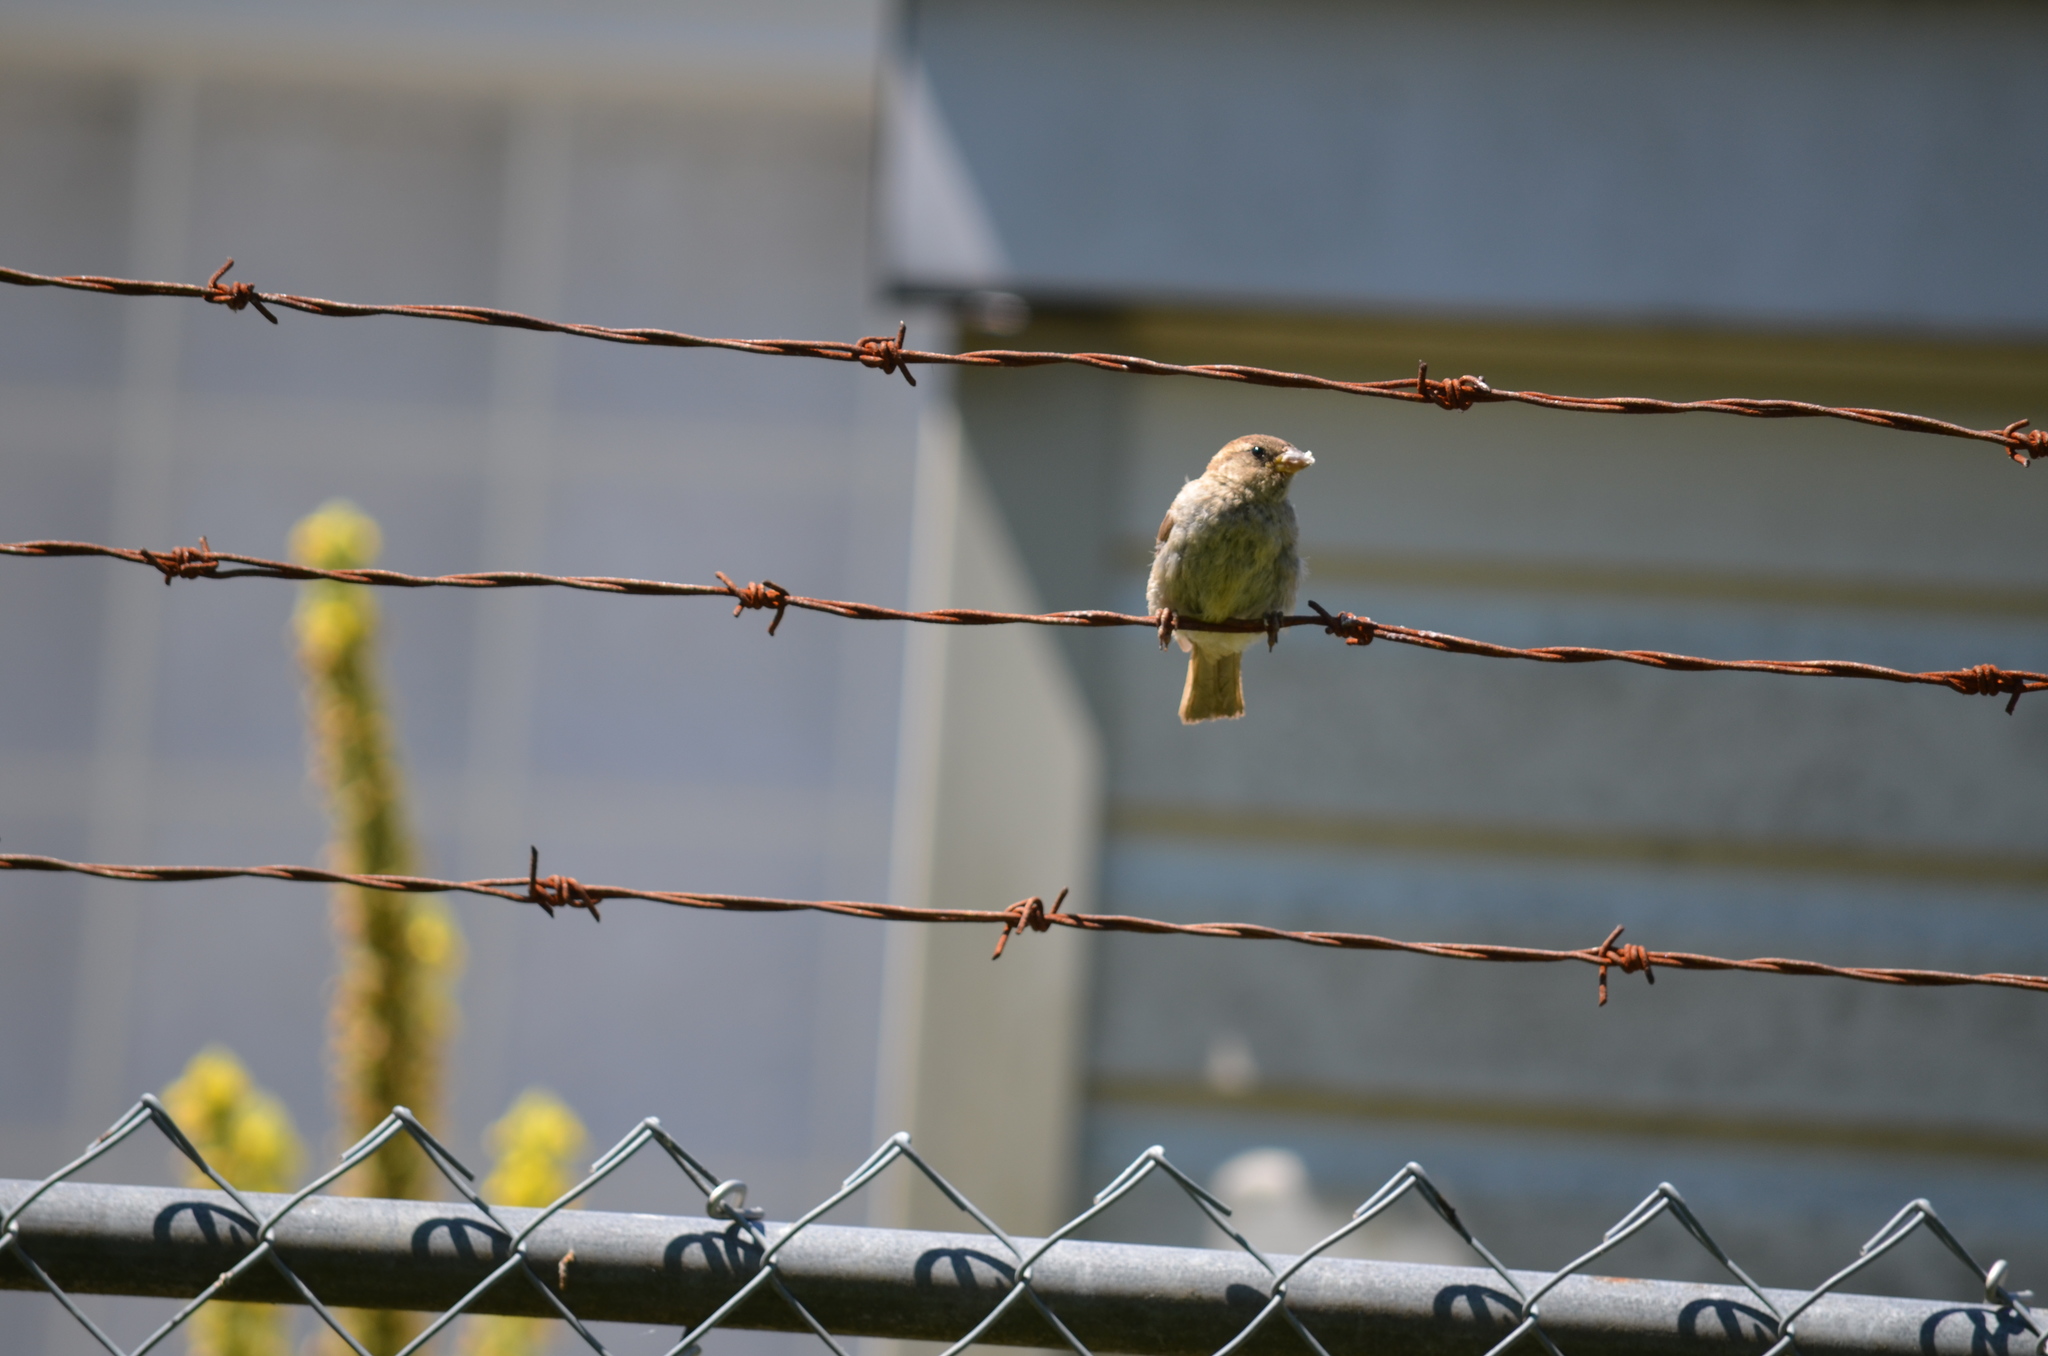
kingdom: Animalia
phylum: Chordata
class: Aves
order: Passeriformes
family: Passeridae
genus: Passer
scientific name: Passer domesticus
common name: House sparrow
